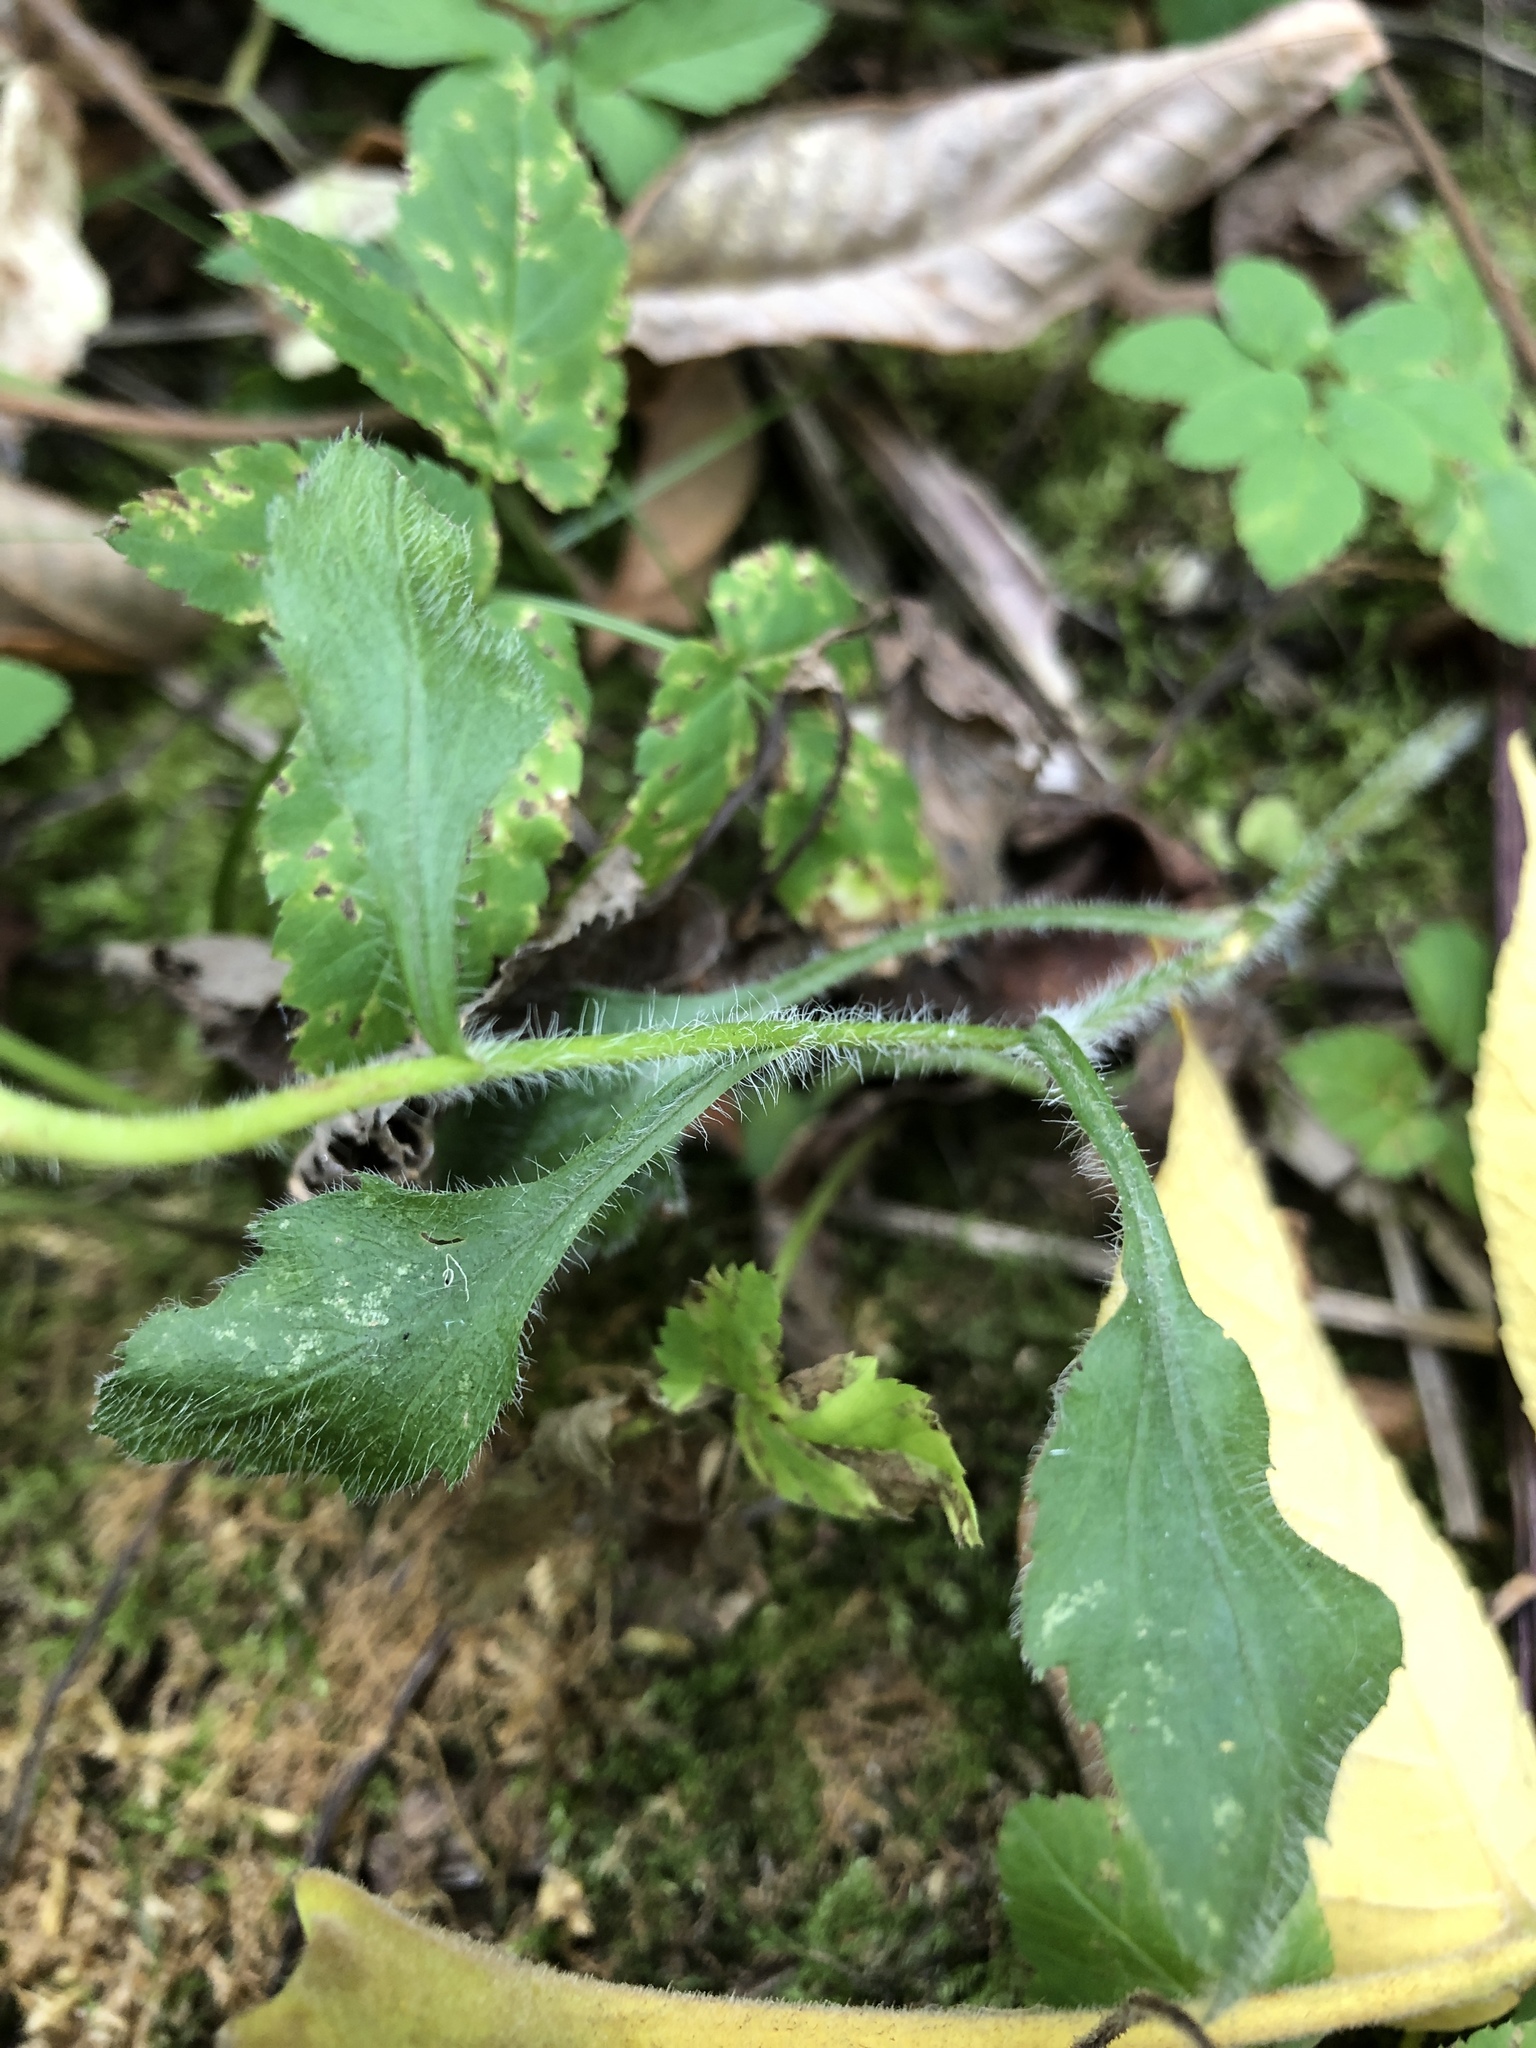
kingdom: Plantae
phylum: Tracheophyta
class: Magnoliopsida
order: Asterales
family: Asteraceae
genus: Erigeron
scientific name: Erigeron annuus
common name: Tall fleabane
